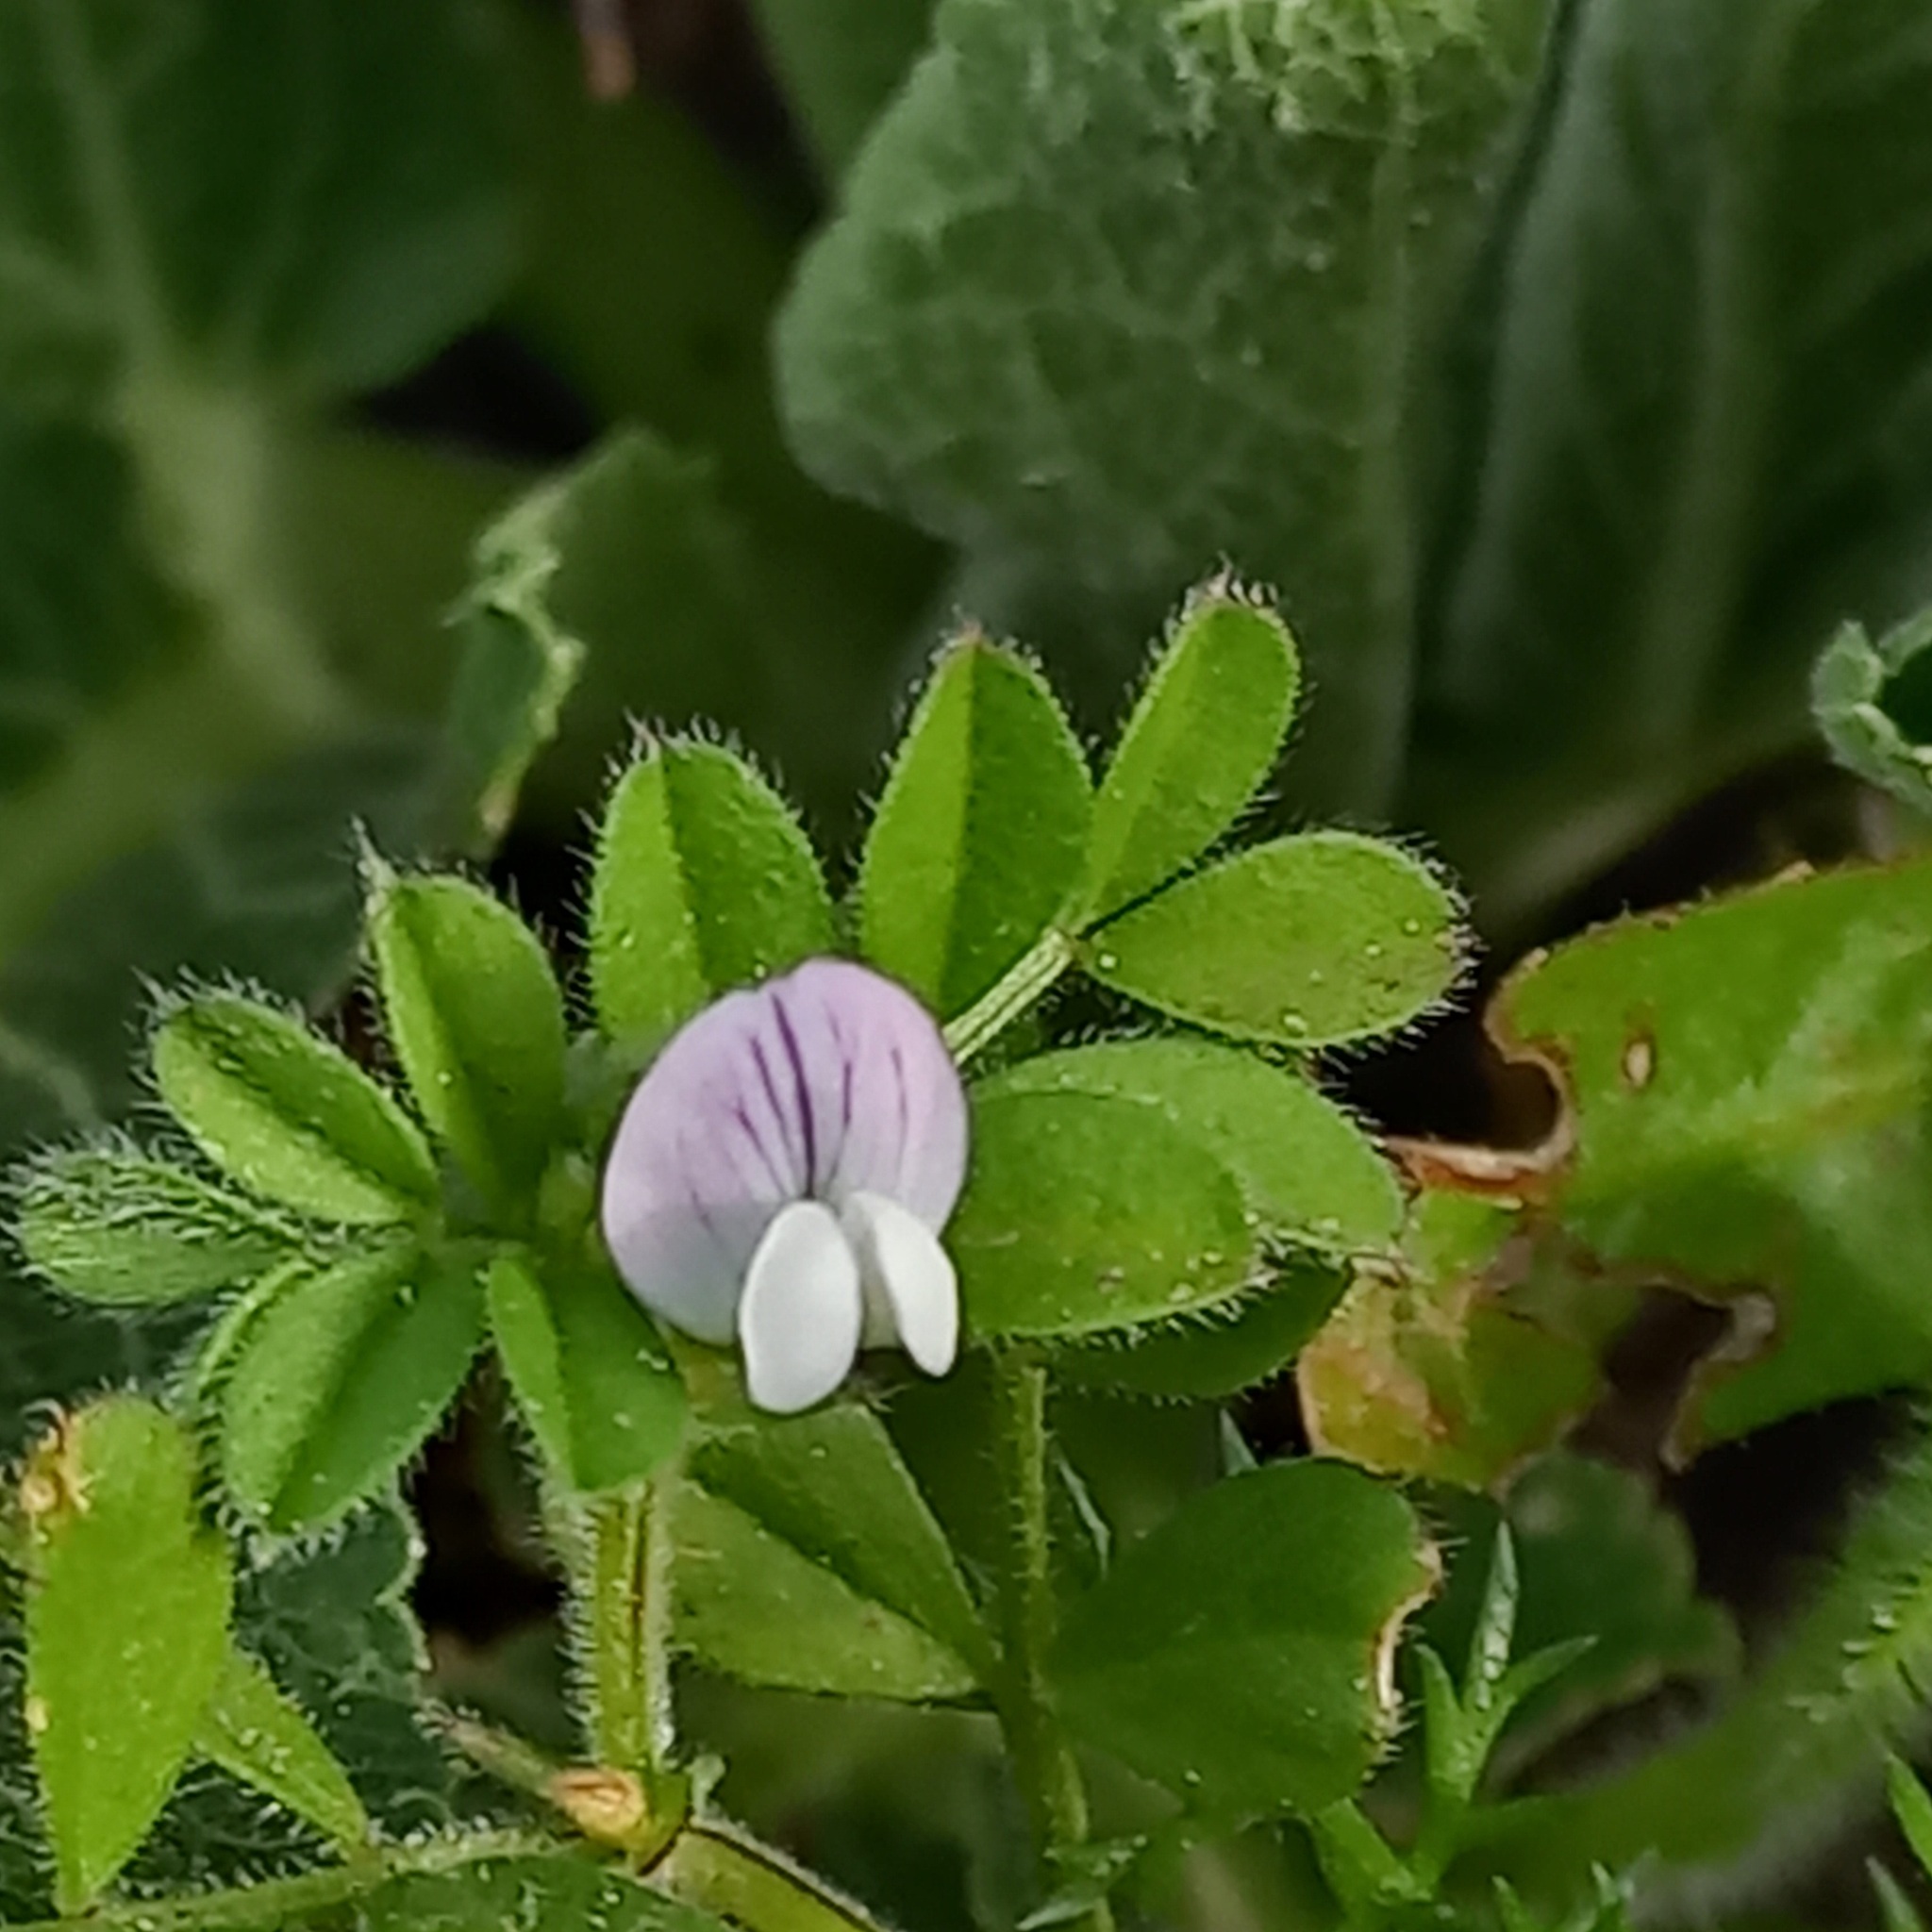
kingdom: Plantae
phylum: Tracheophyta
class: Magnoliopsida
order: Fabales
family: Fabaceae
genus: Vicia
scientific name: Vicia lathyroides
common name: Spring vetch
